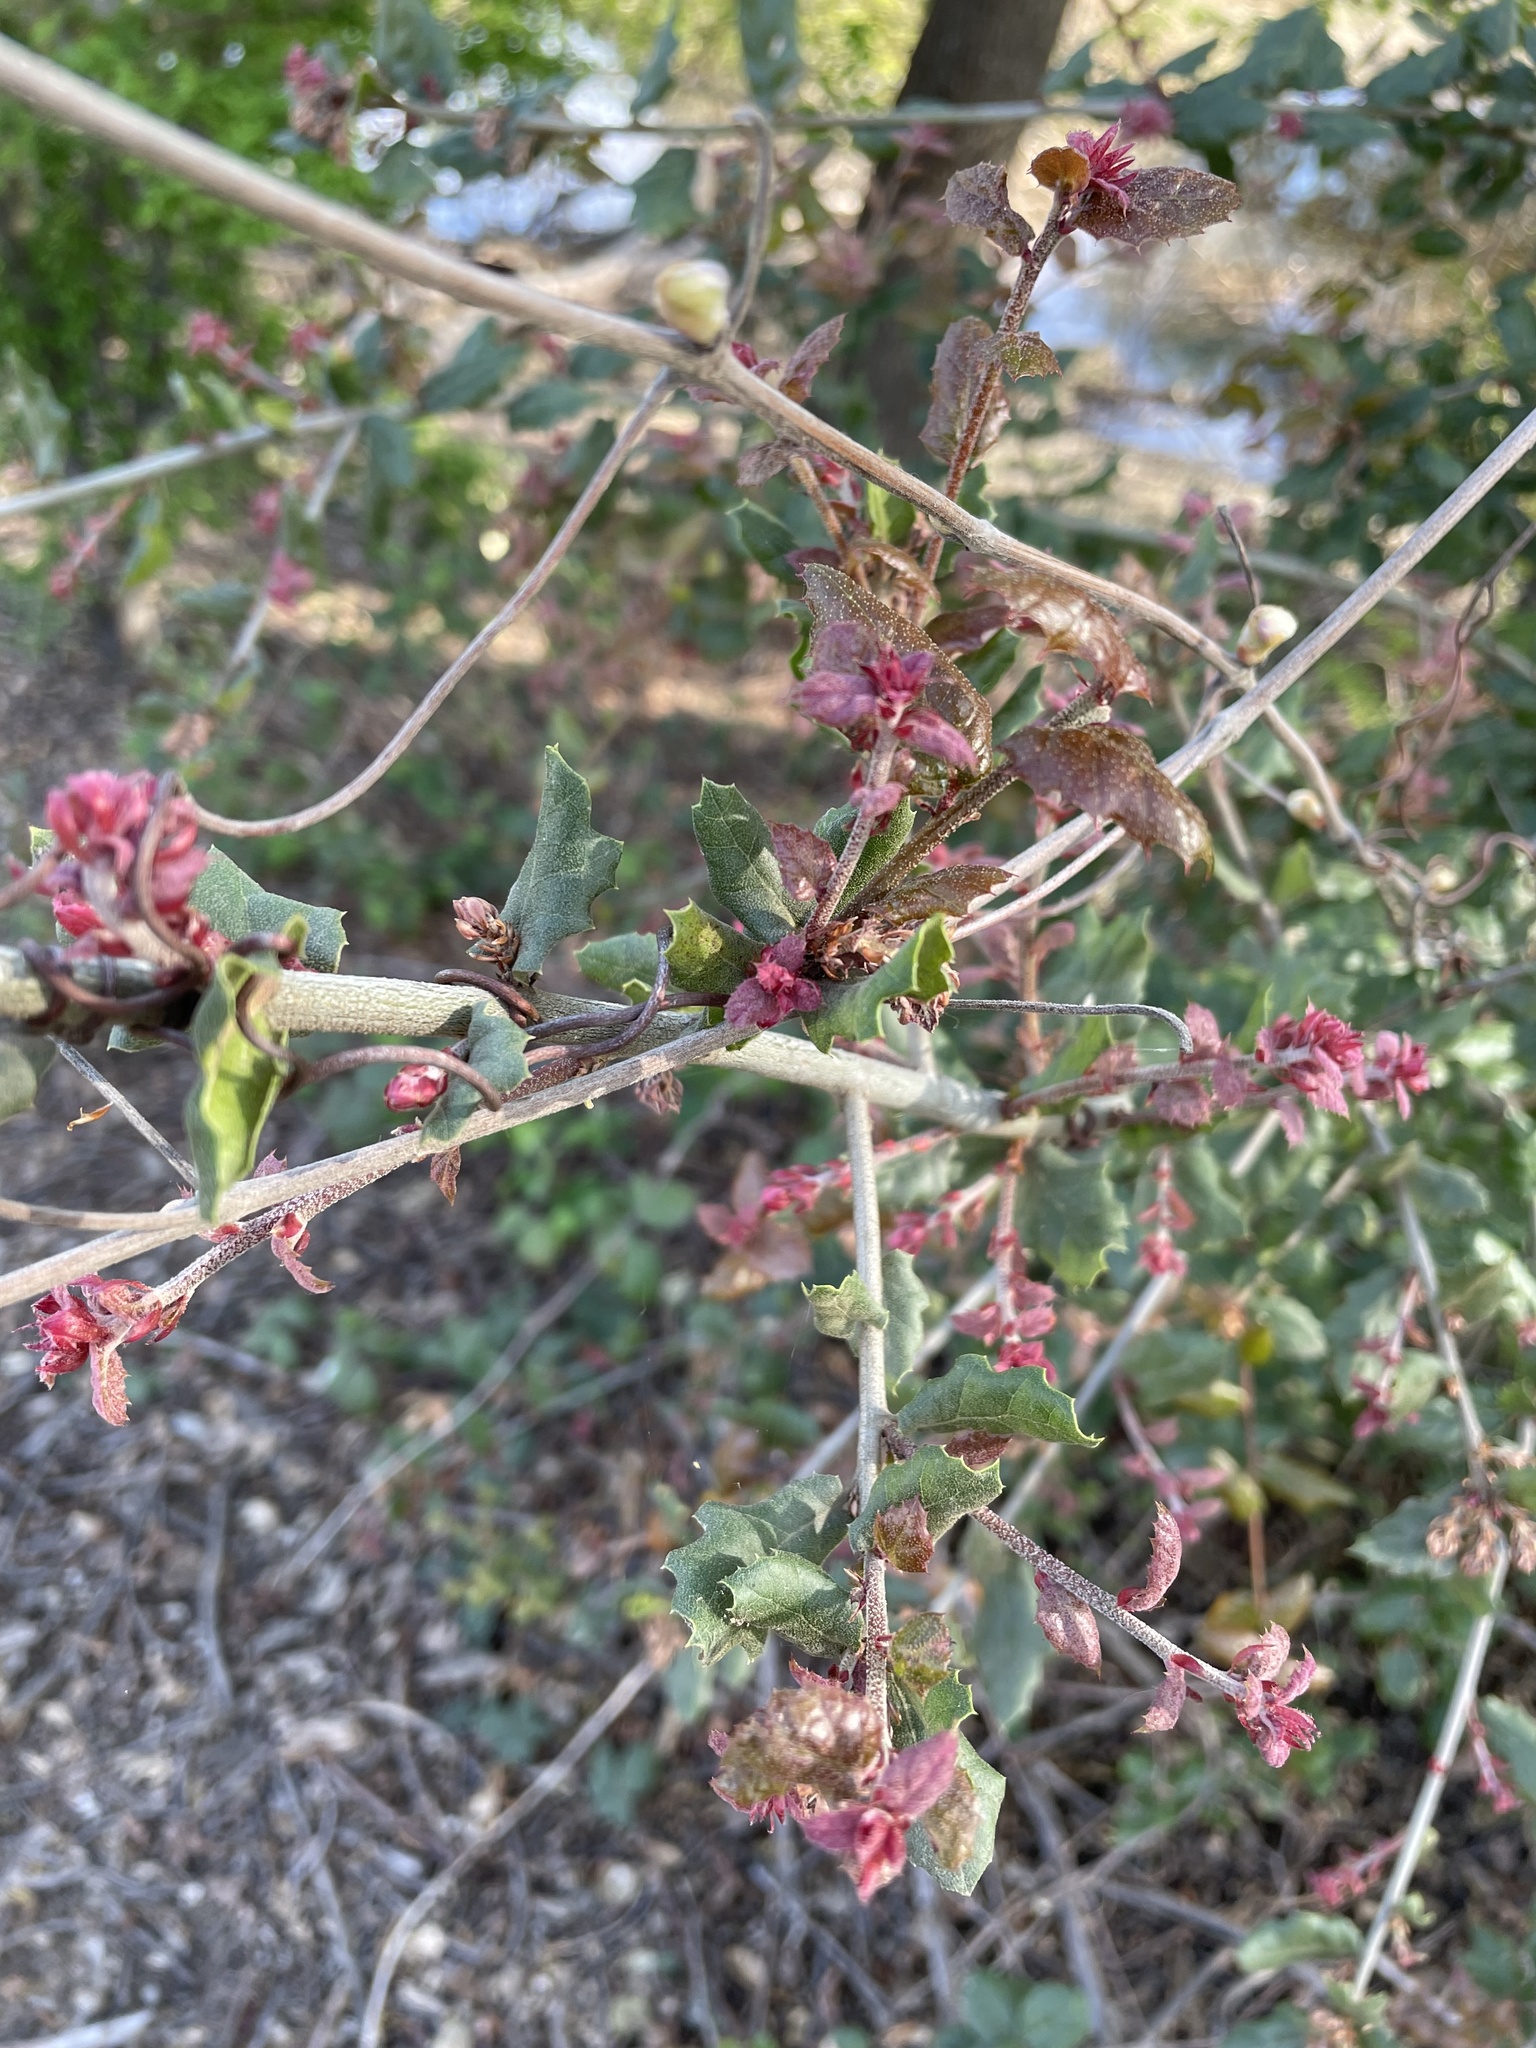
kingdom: Plantae
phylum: Tracheophyta
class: Magnoliopsida
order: Fagales
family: Fagaceae
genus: Quercus
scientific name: Quercus agrifolia
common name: California live oak
